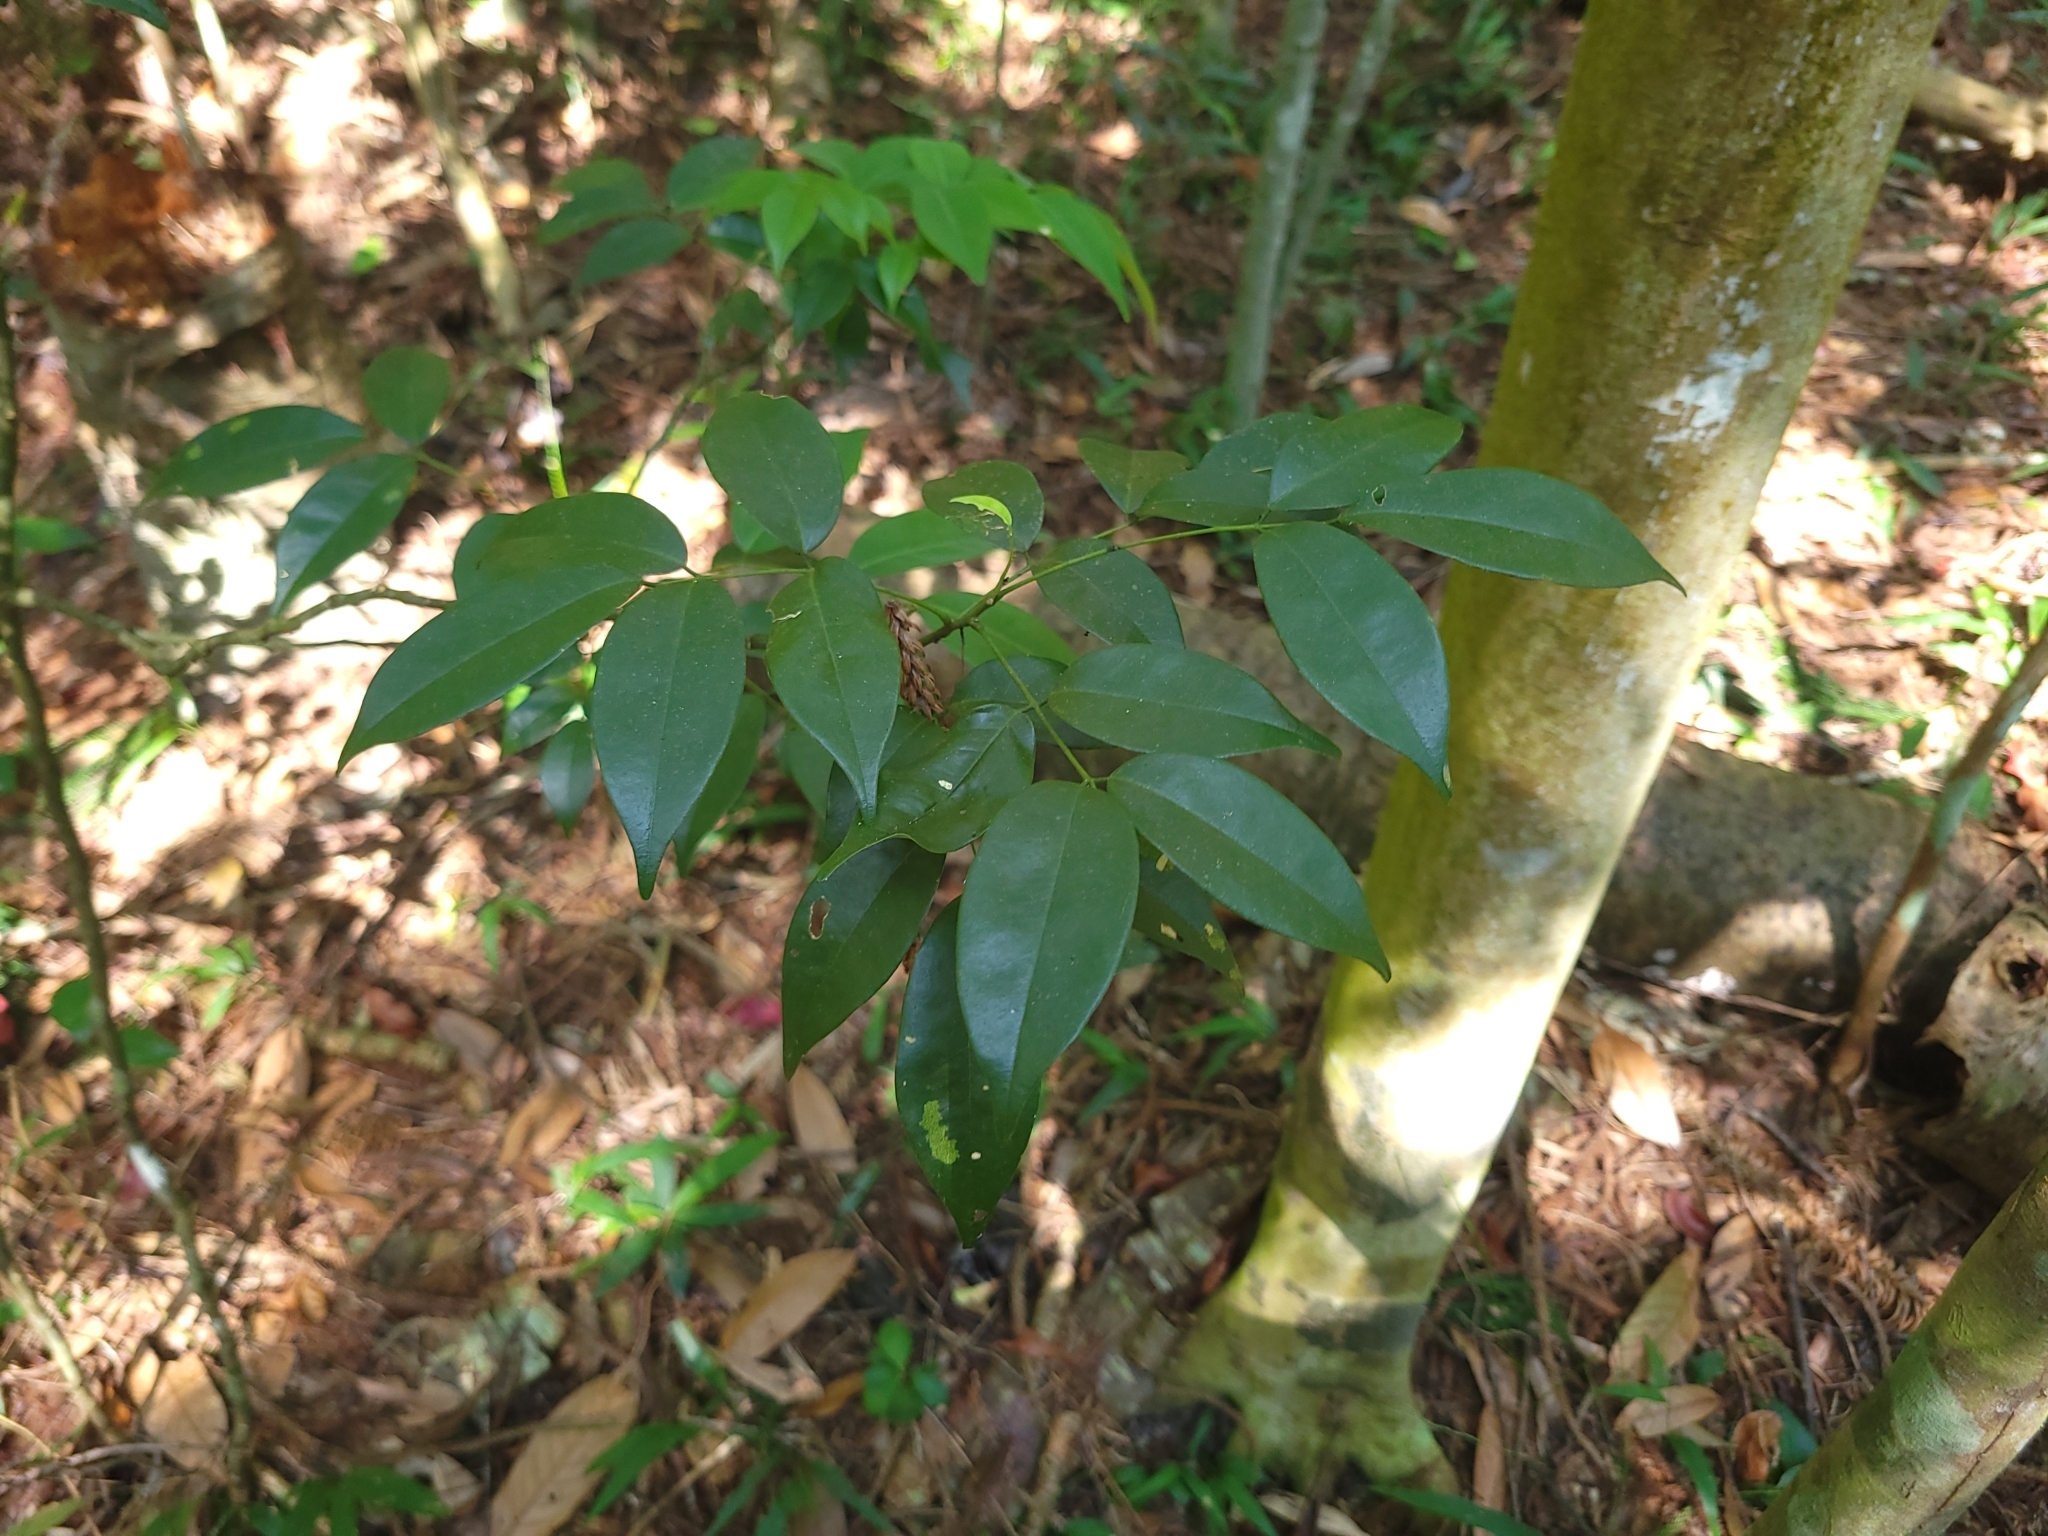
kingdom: Plantae
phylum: Tracheophyta
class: Magnoliopsida
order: Fabales
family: Fabaceae
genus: Ormosia
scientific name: Ormosia formosana
